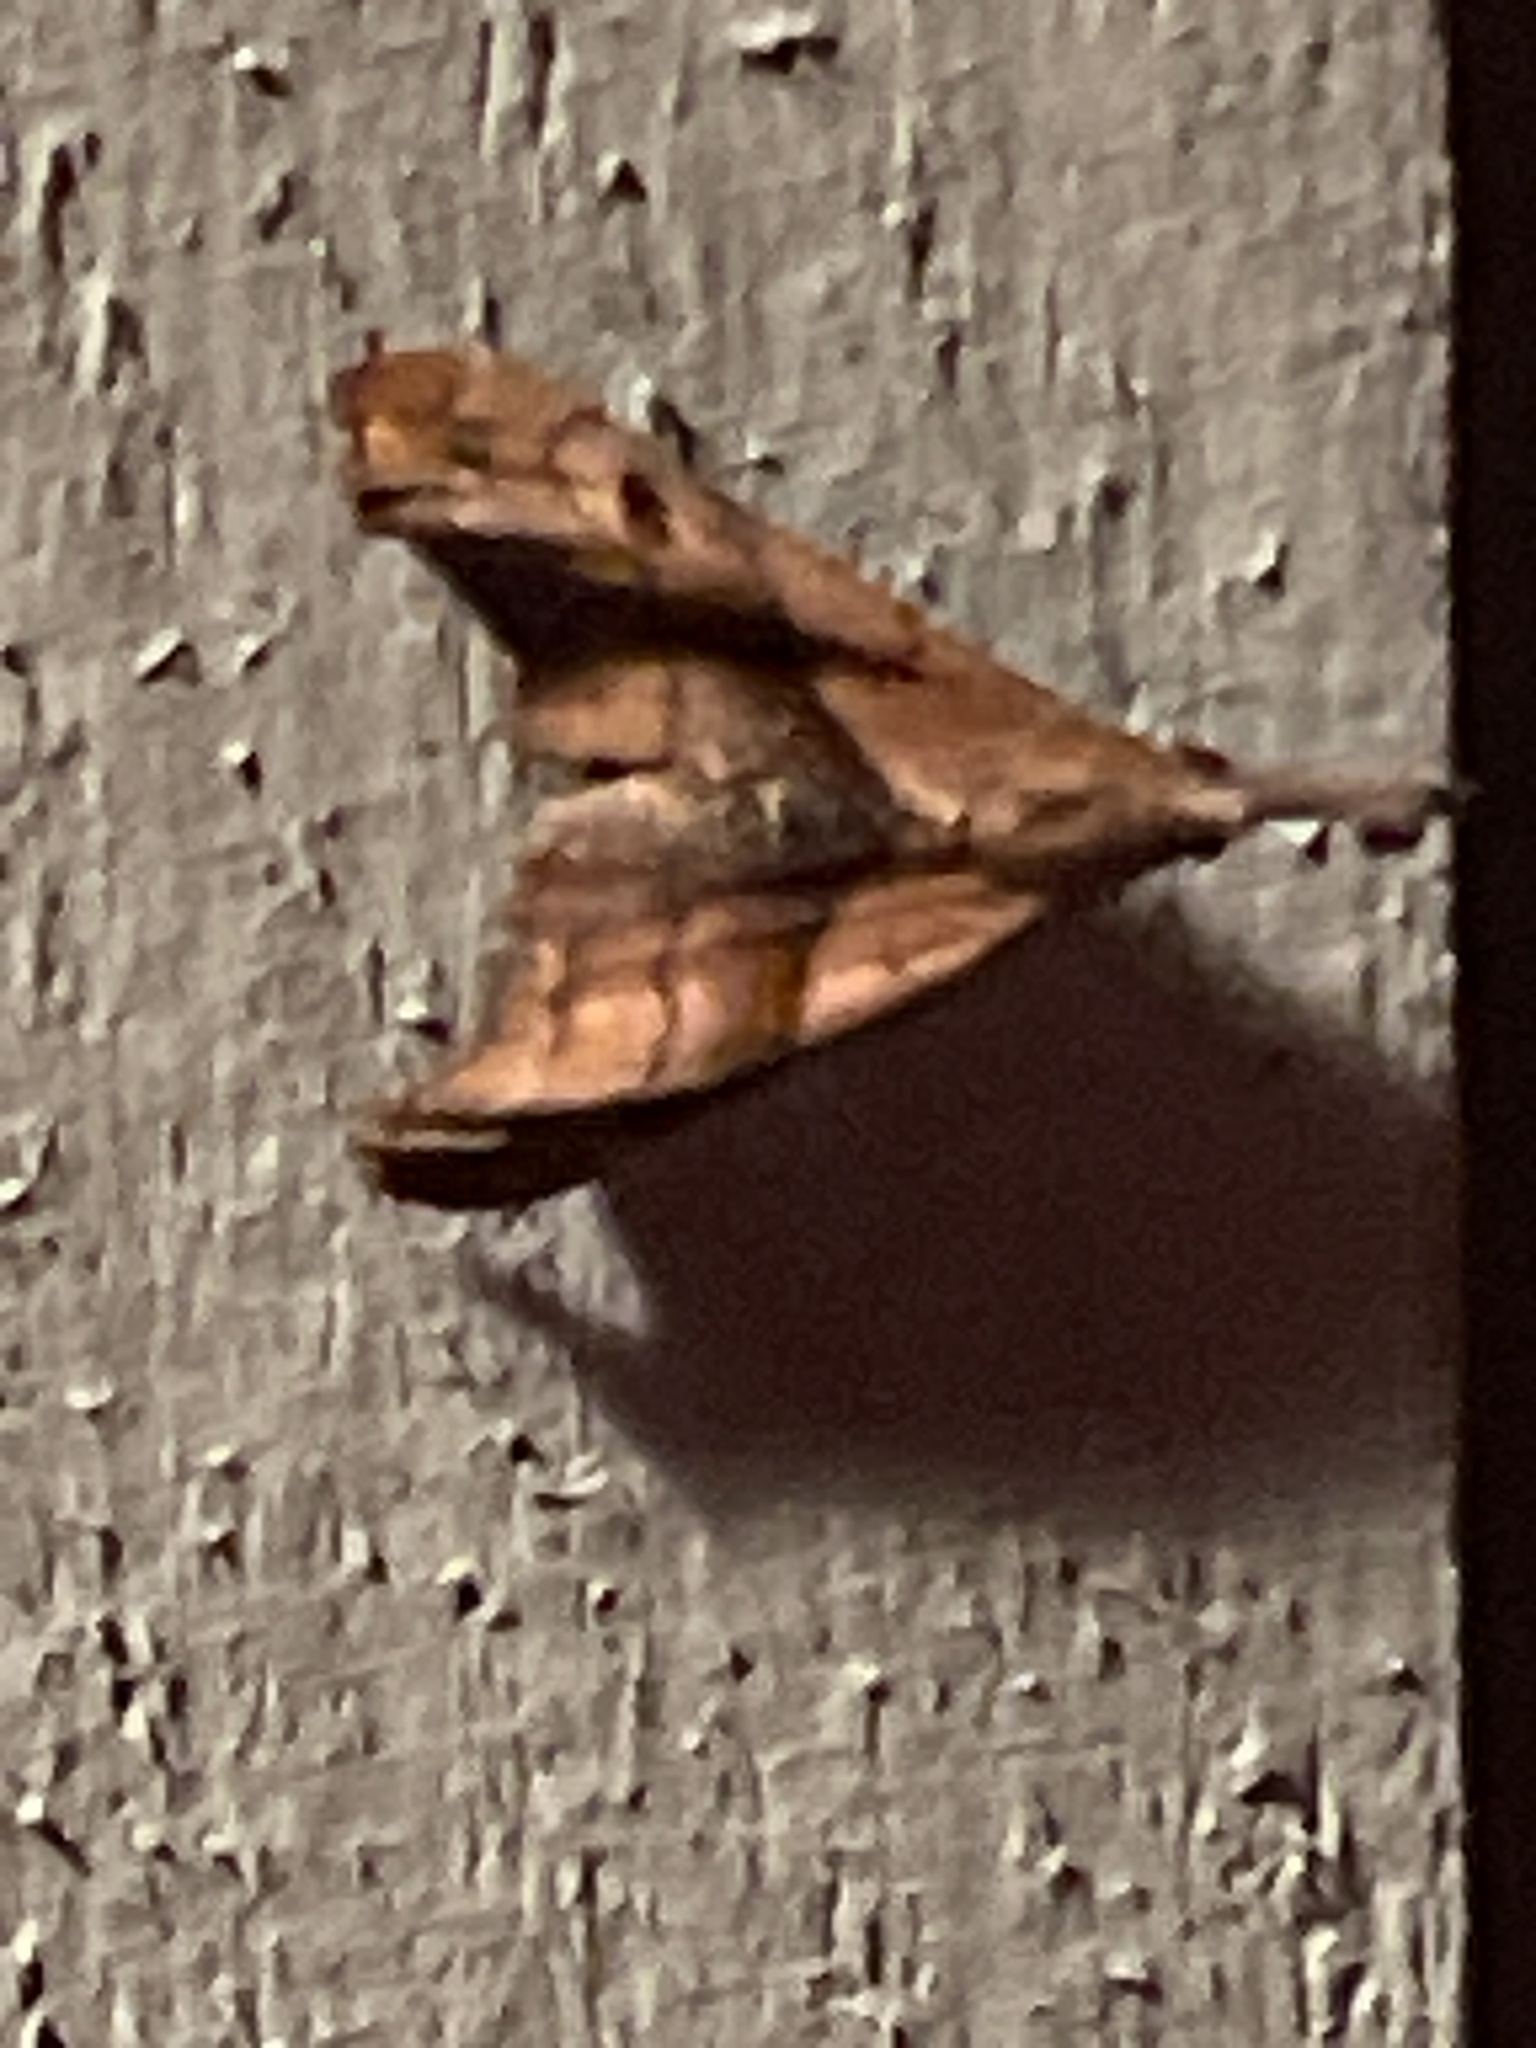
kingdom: Animalia
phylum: Arthropoda
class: Insecta
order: Lepidoptera
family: Erebidae
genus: Palthis
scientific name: Palthis angulalis
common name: Dark-spotted palthis moth
